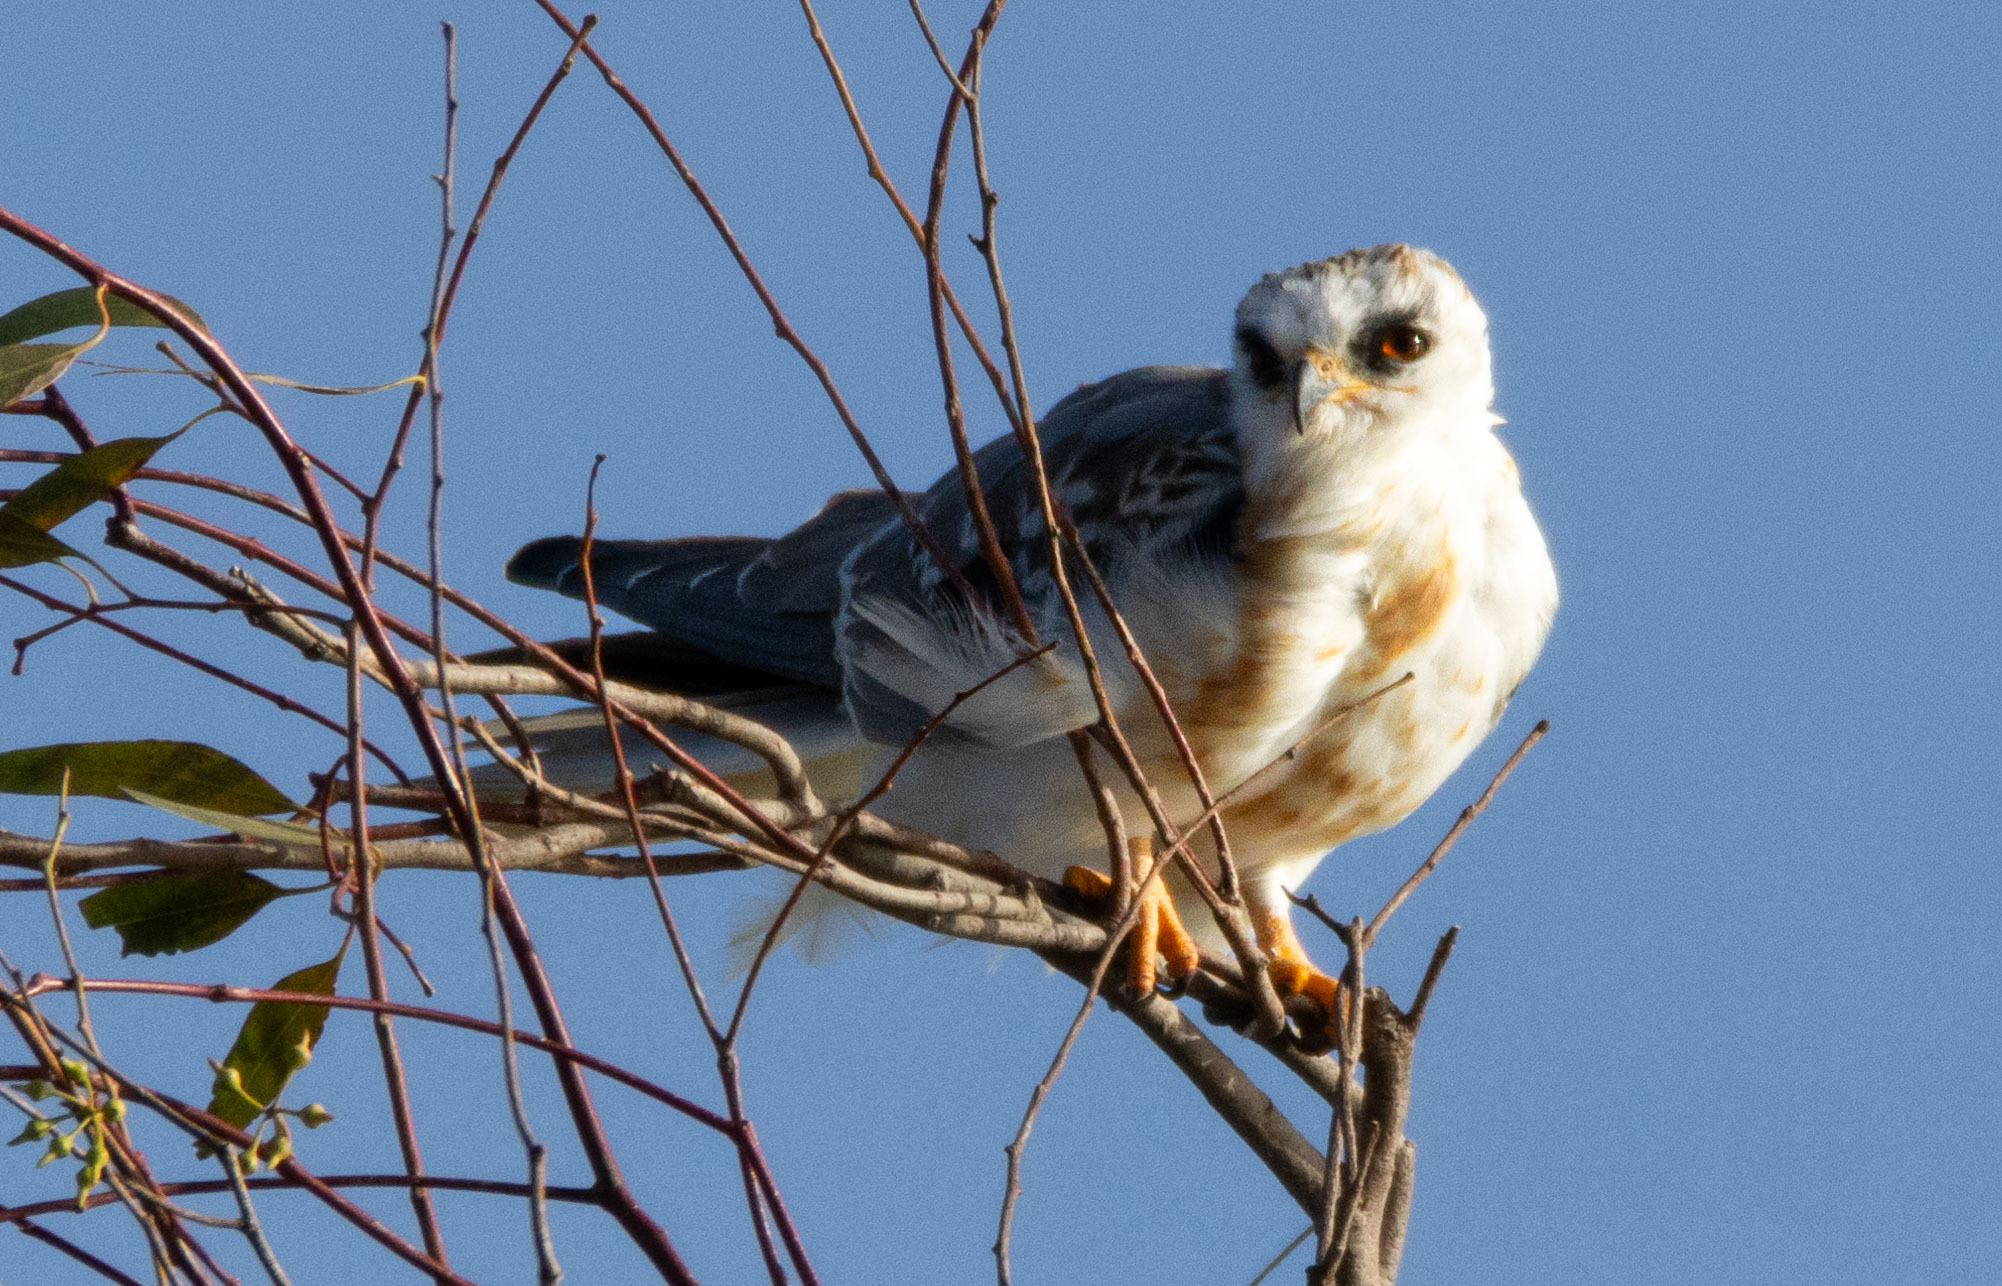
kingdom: Animalia
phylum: Chordata
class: Aves
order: Accipitriformes
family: Accipitridae
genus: Elanus
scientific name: Elanus leucurus
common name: White-tailed kite
